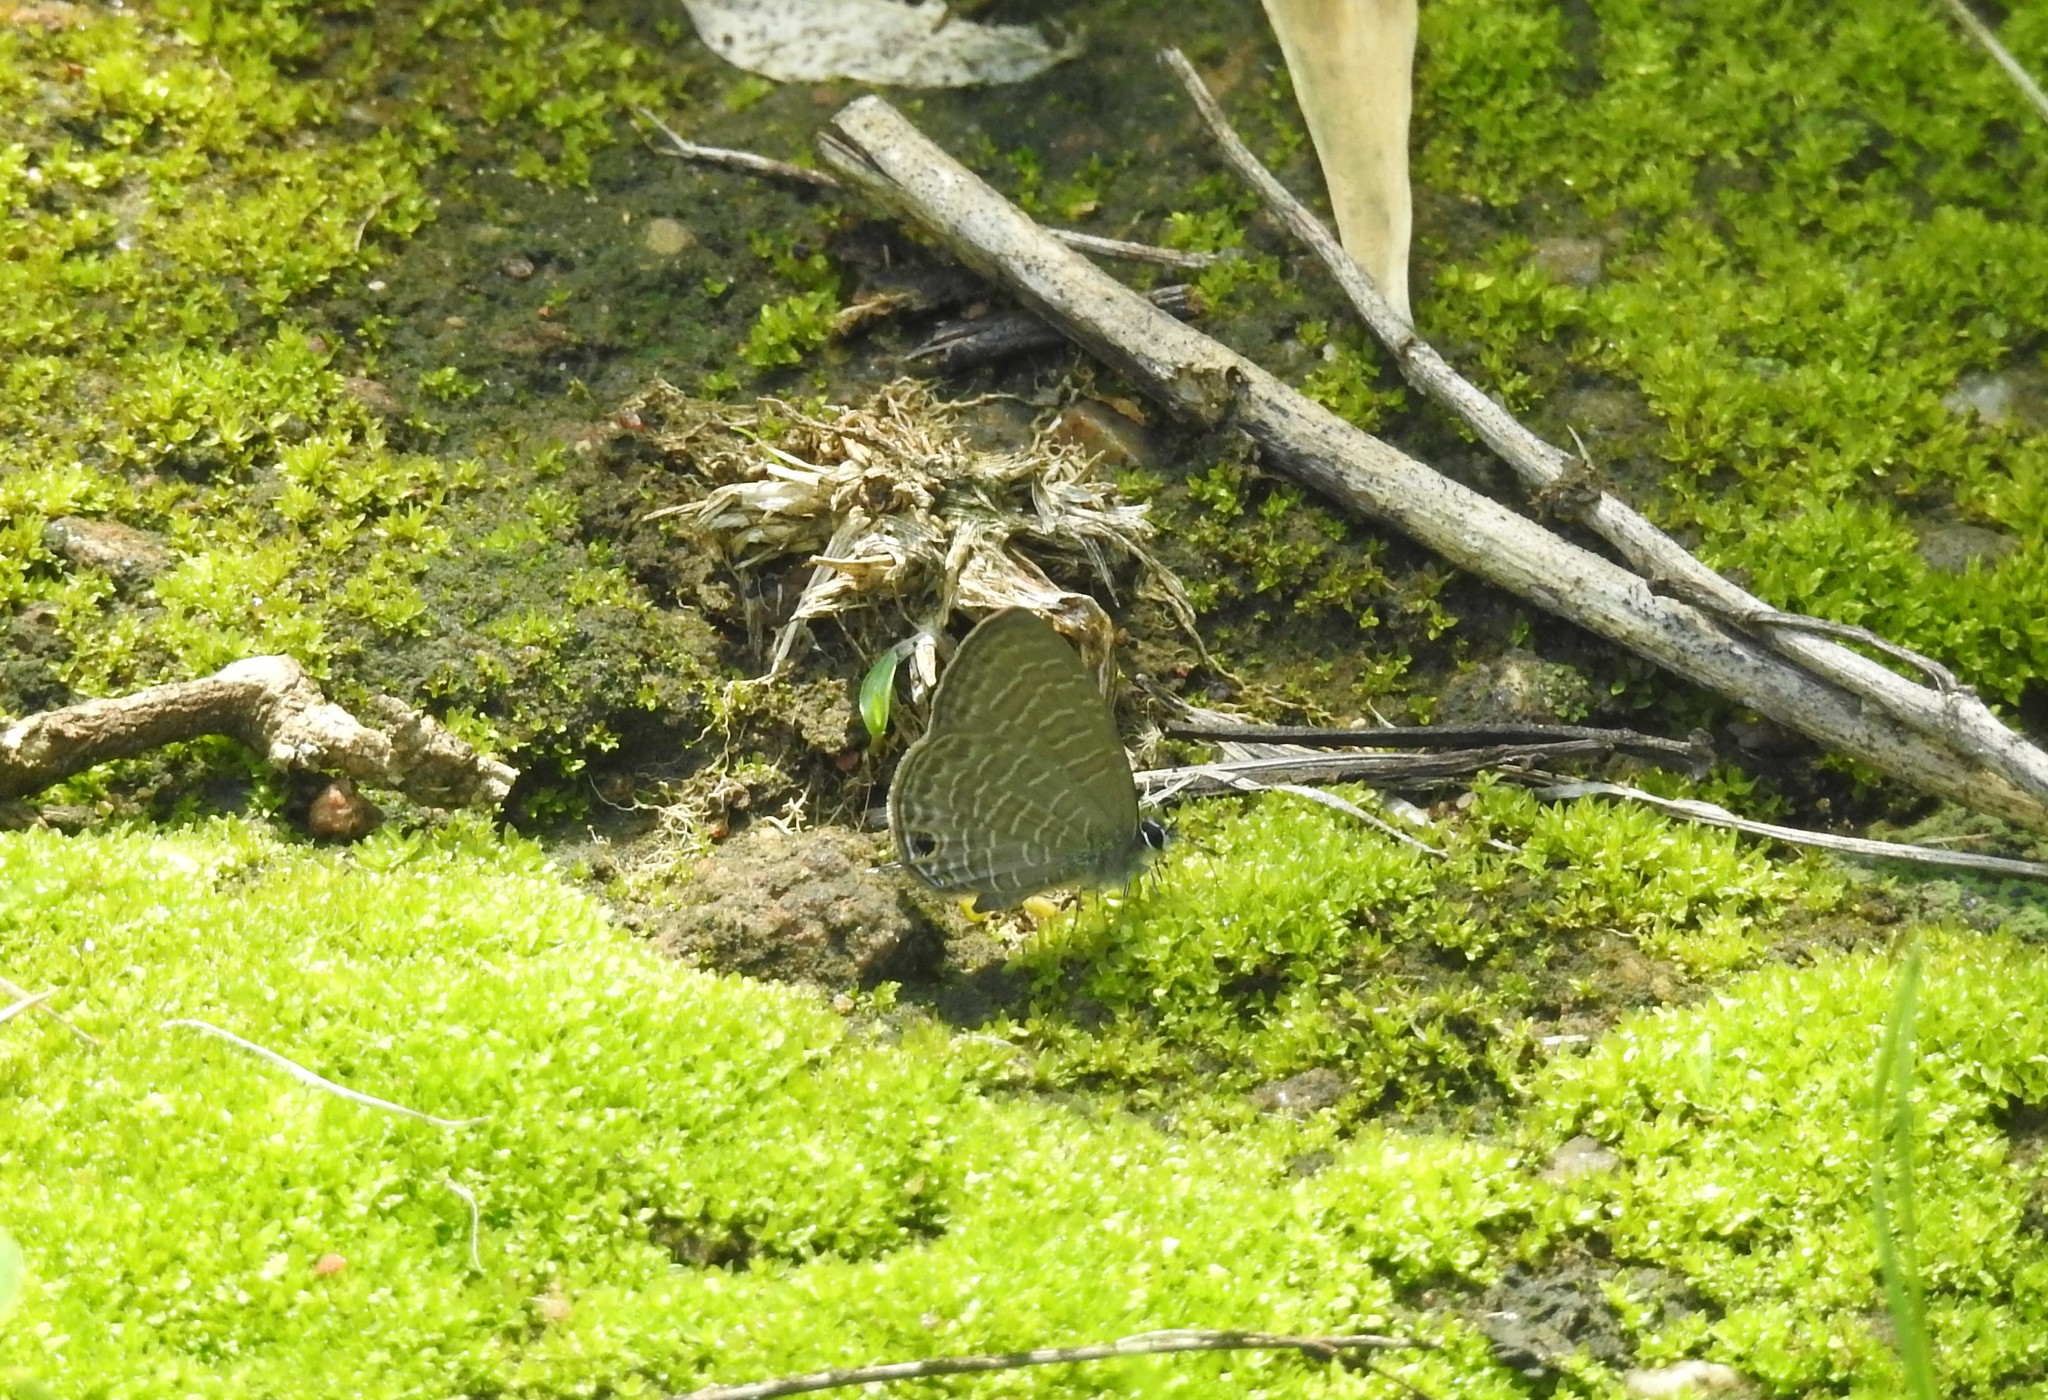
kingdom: Animalia
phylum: Arthropoda
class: Insecta
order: Lepidoptera
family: Lycaenidae
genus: Prosotas
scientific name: Prosotas nora
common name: Common line blue
